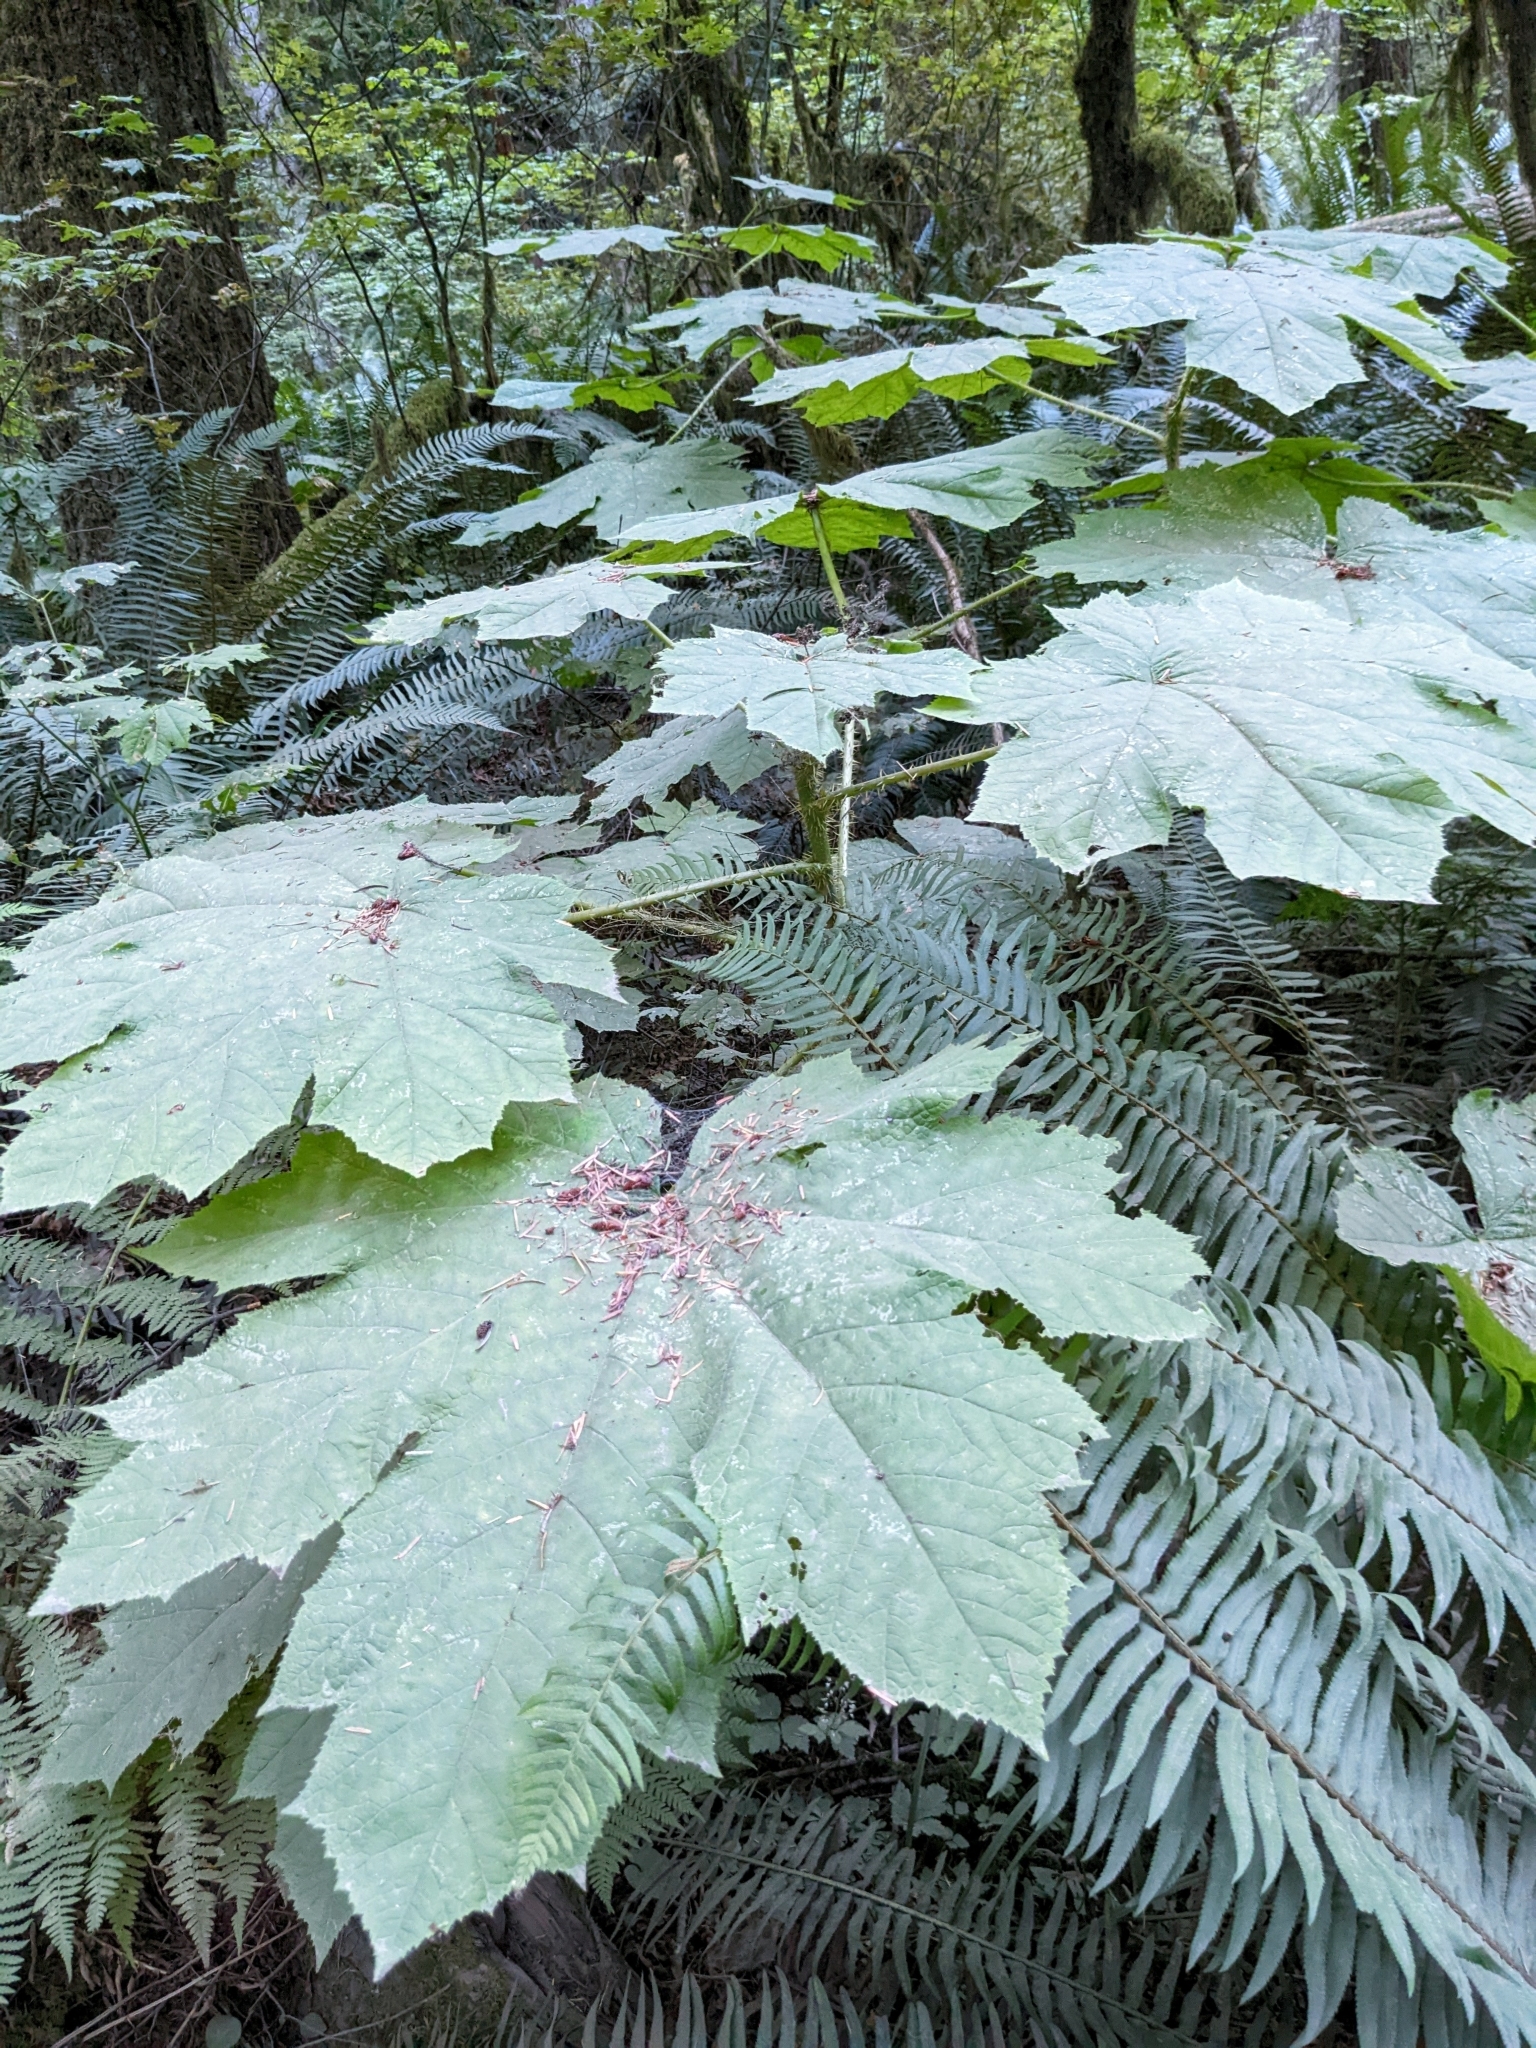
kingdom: Plantae
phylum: Tracheophyta
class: Magnoliopsida
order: Apiales
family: Araliaceae
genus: Oplopanax
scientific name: Oplopanax horridus
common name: Devil's walking-stick
